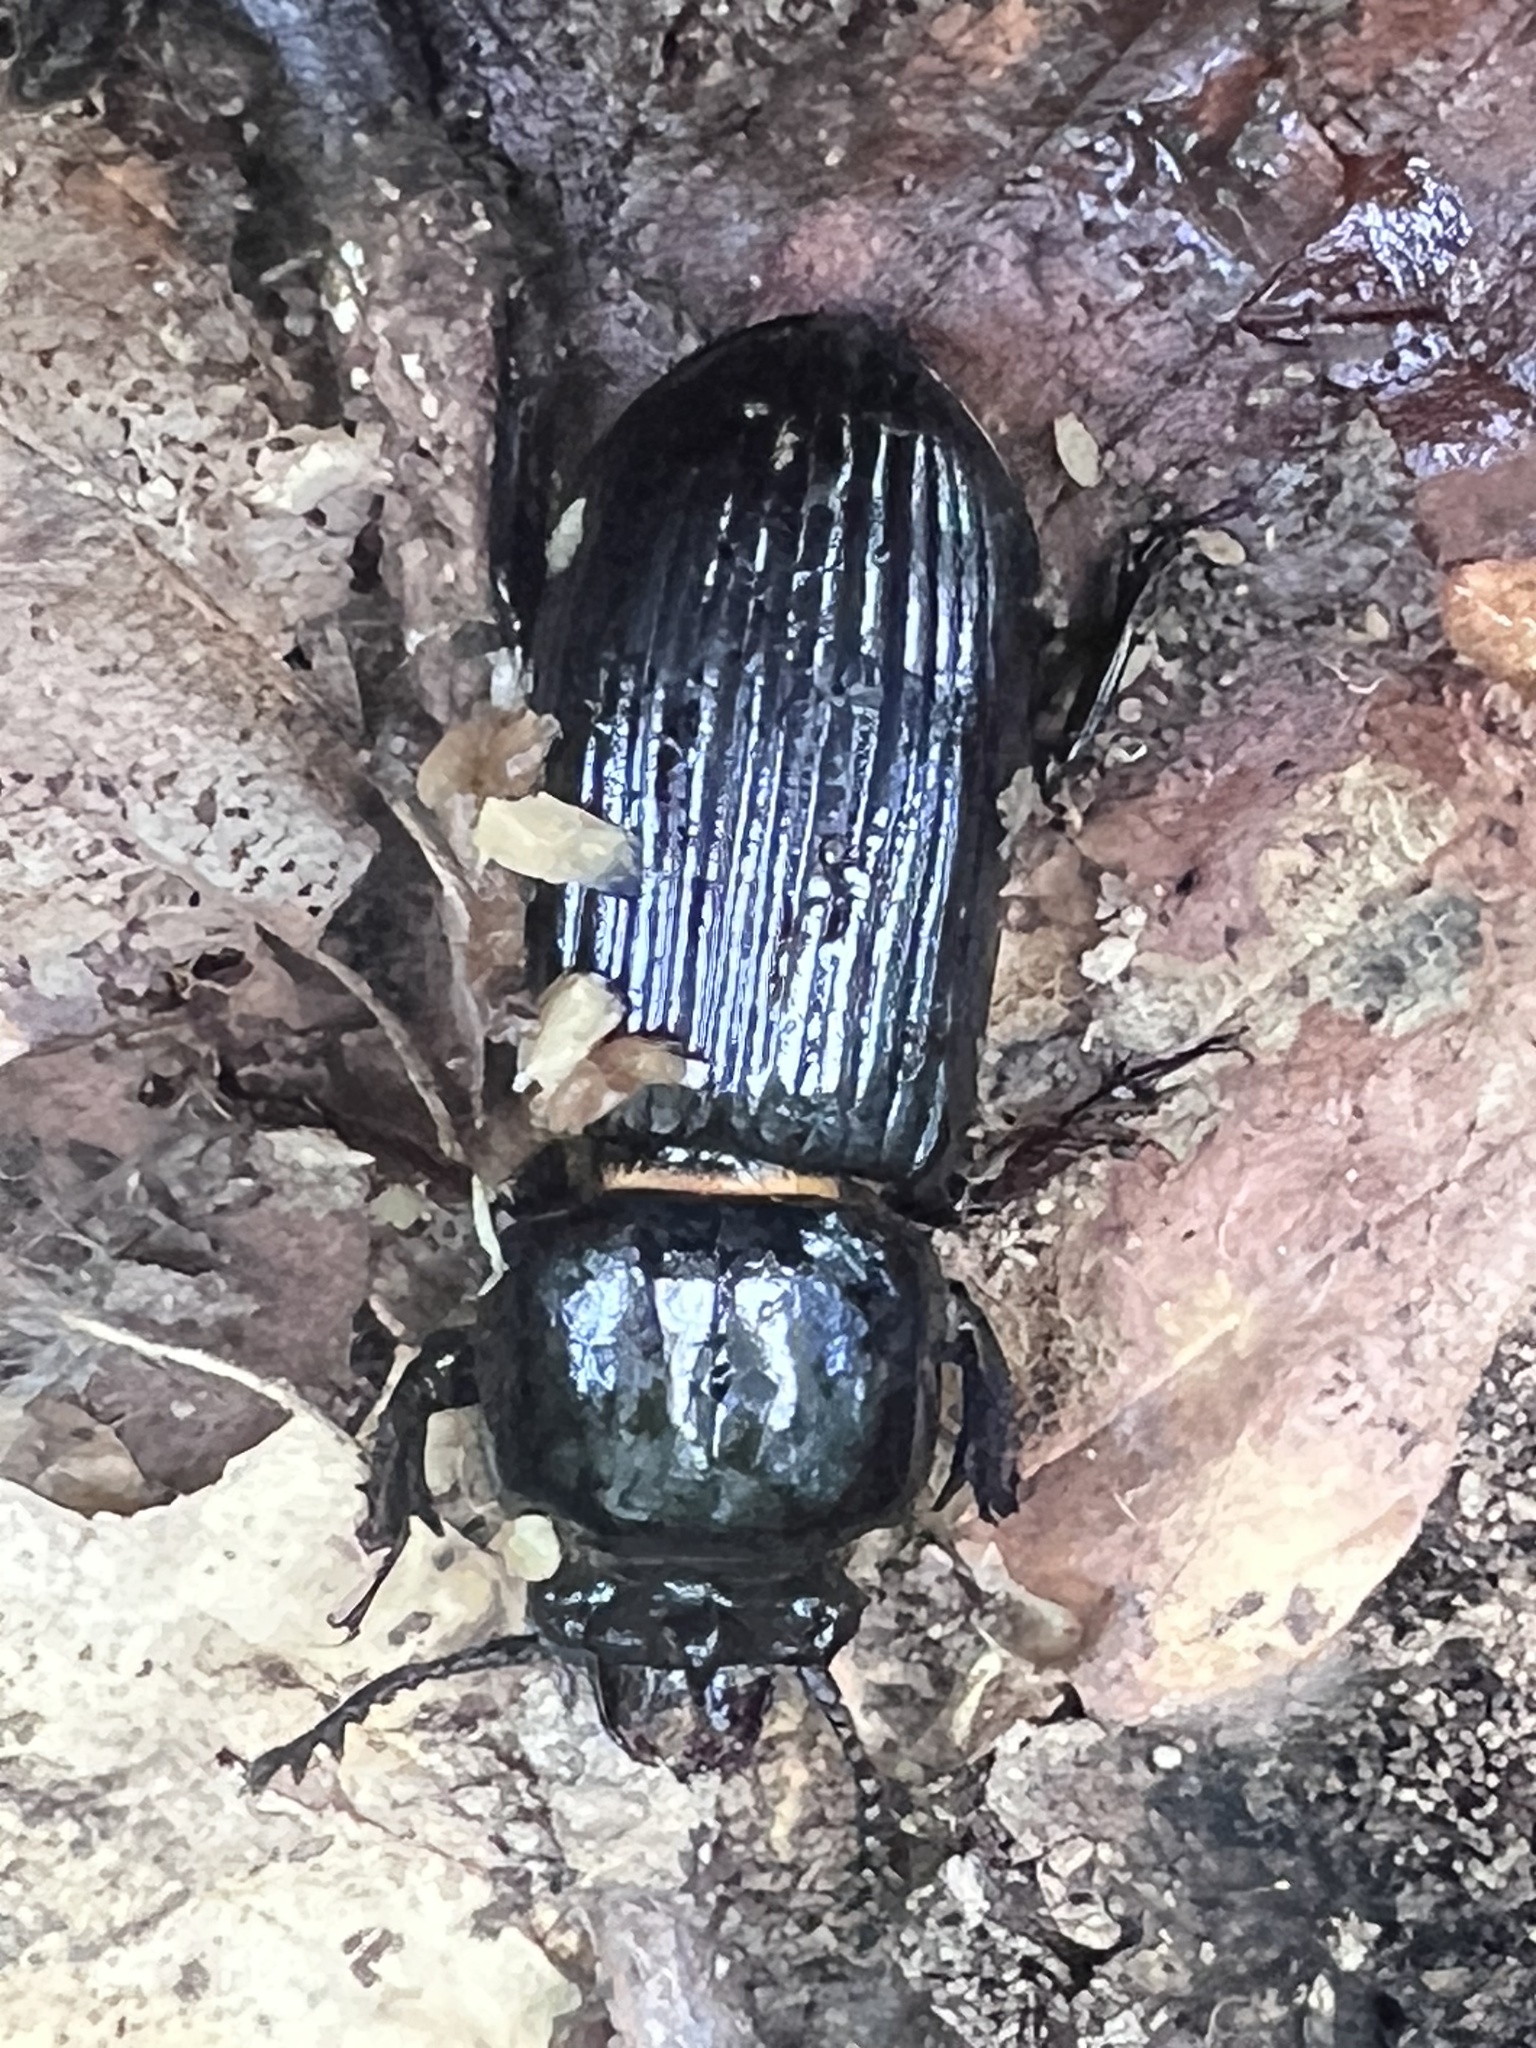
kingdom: Animalia
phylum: Arthropoda
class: Insecta
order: Coleoptera
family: Passalidae
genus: Odontotaenius
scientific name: Odontotaenius disjunctus
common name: Patent leather beetle
